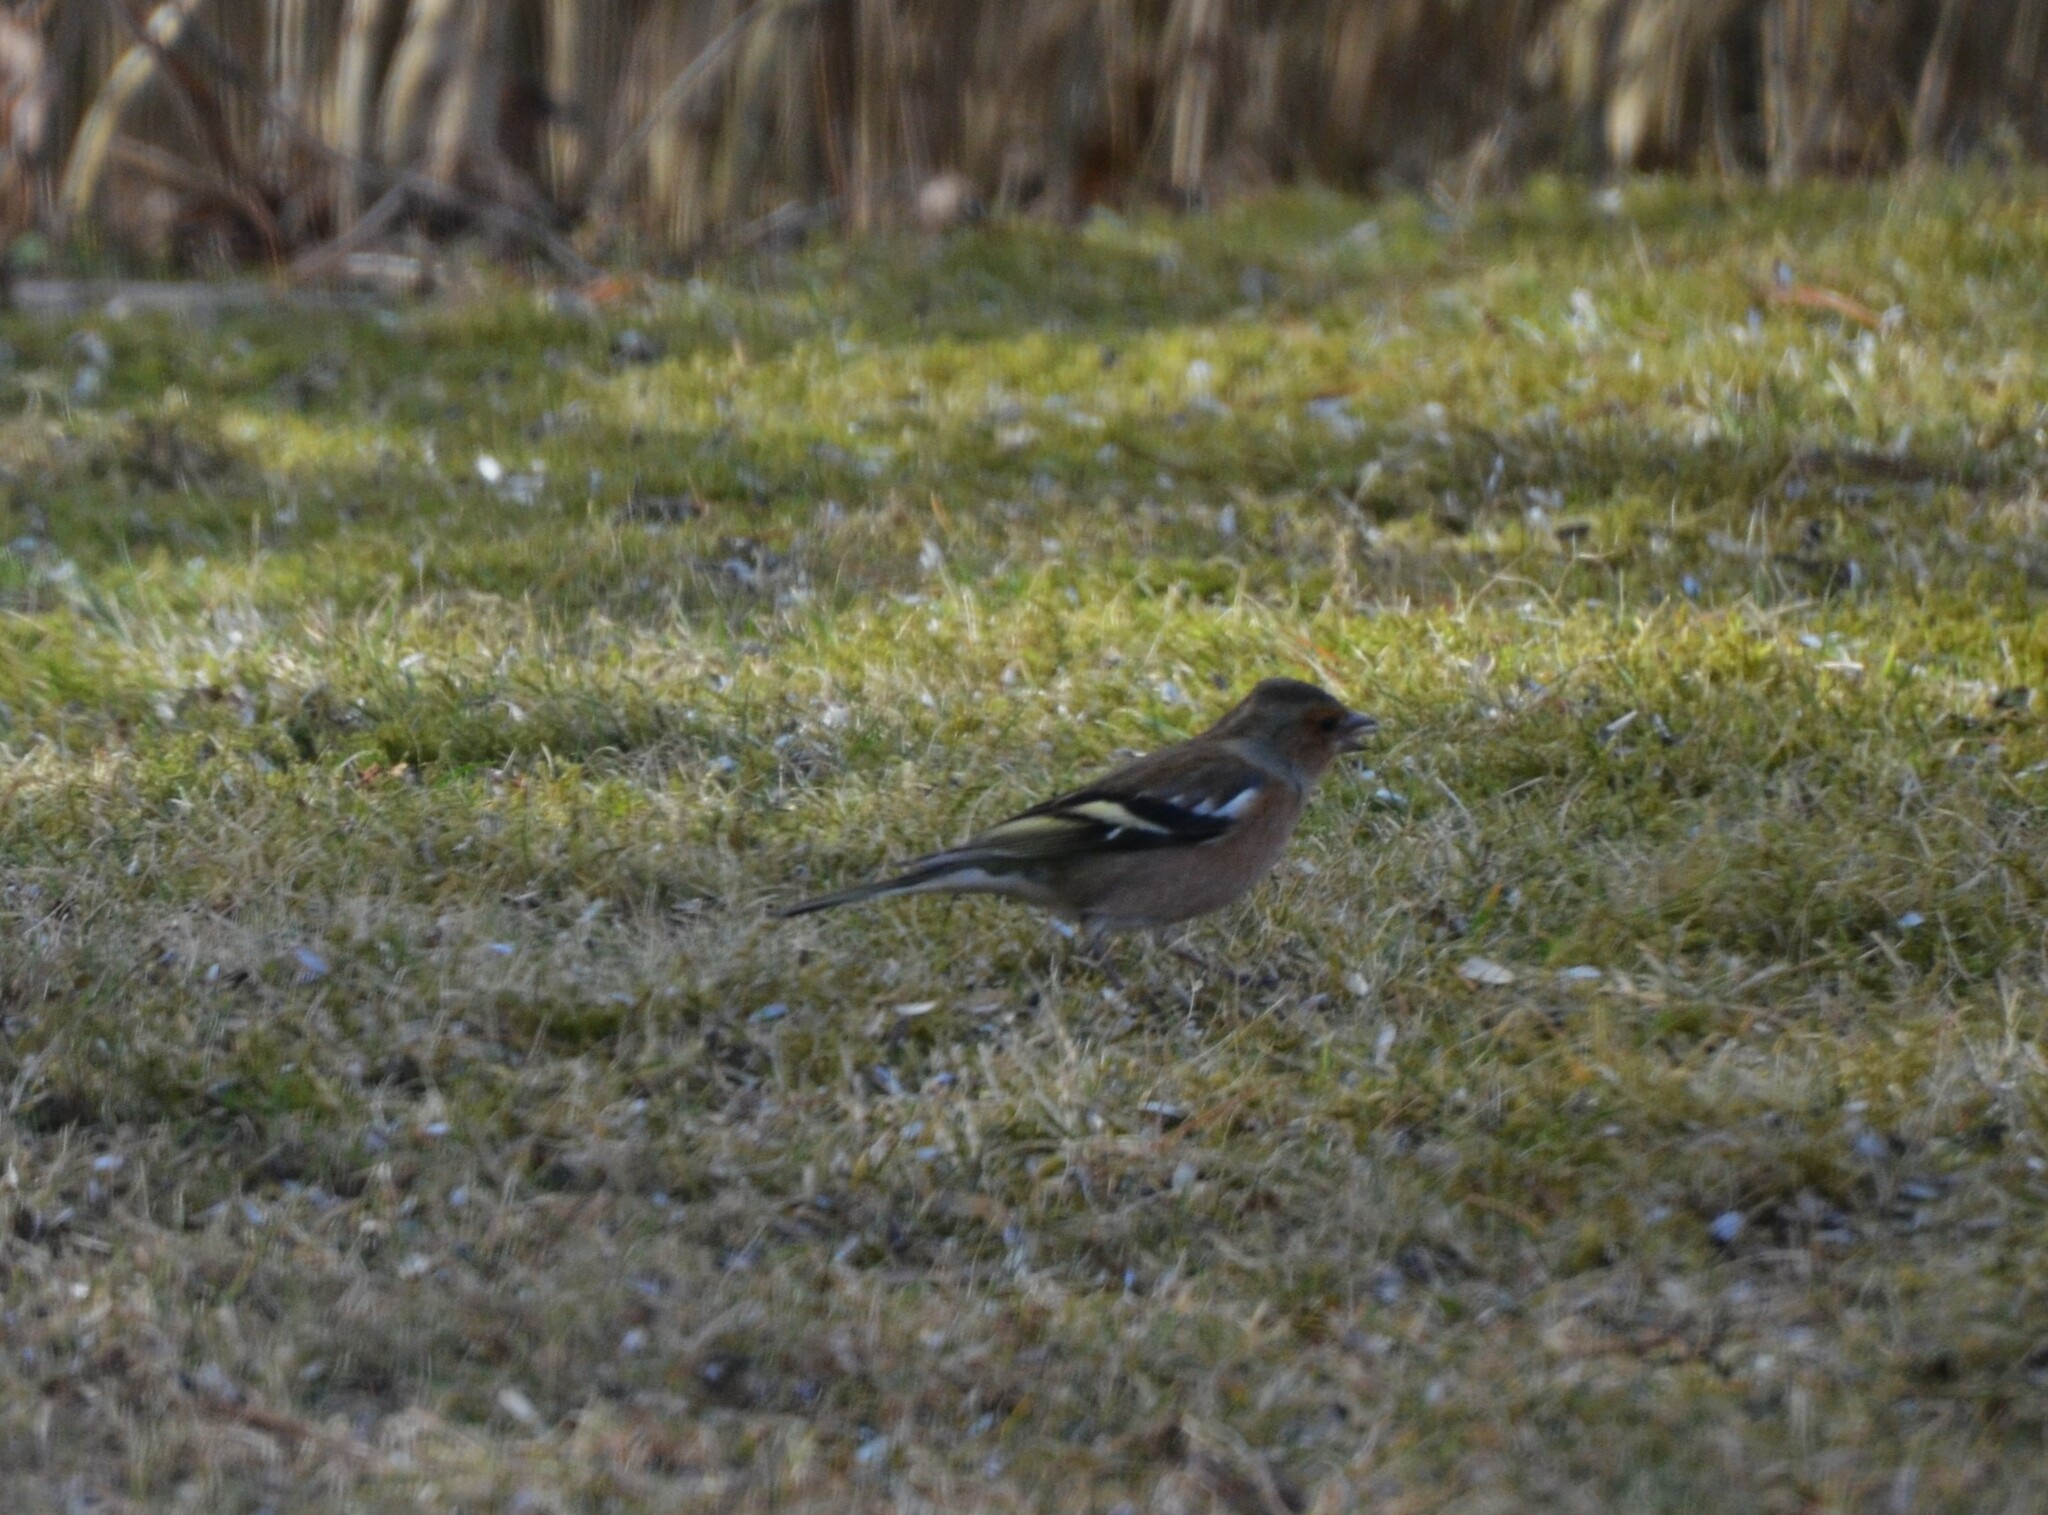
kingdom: Animalia
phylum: Chordata
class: Aves
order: Passeriformes
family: Fringillidae
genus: Fringilla
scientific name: Fringilla coelebs
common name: Common chaffinch
